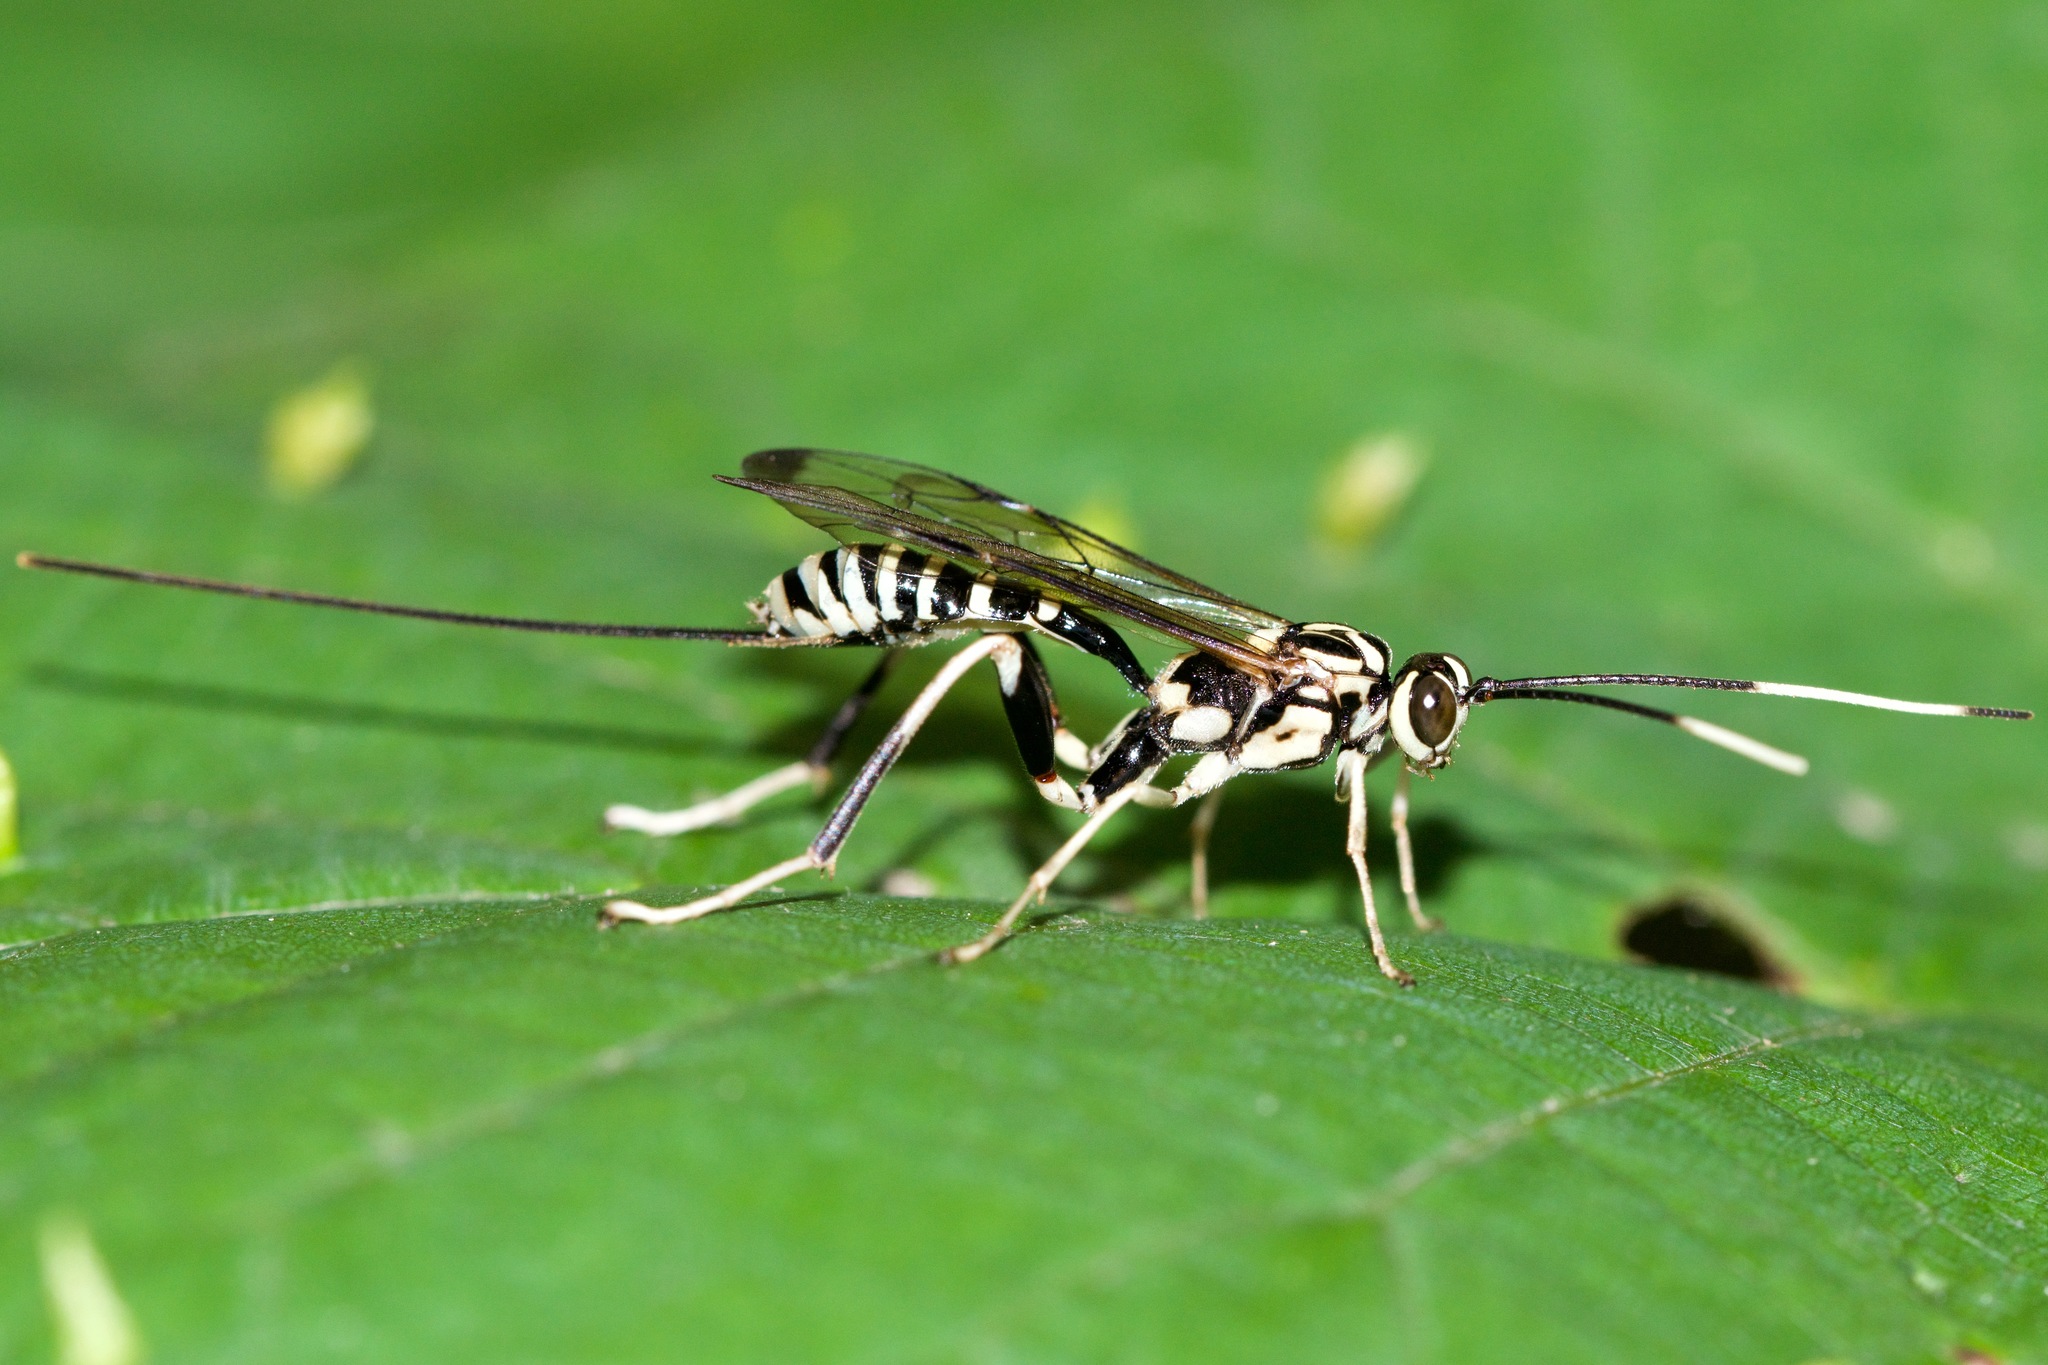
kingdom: Animalia
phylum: Arthropoda
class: Insecta
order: Hymenoptera
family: Ichneumonidae
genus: Arotes
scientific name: Arotes amoenus
